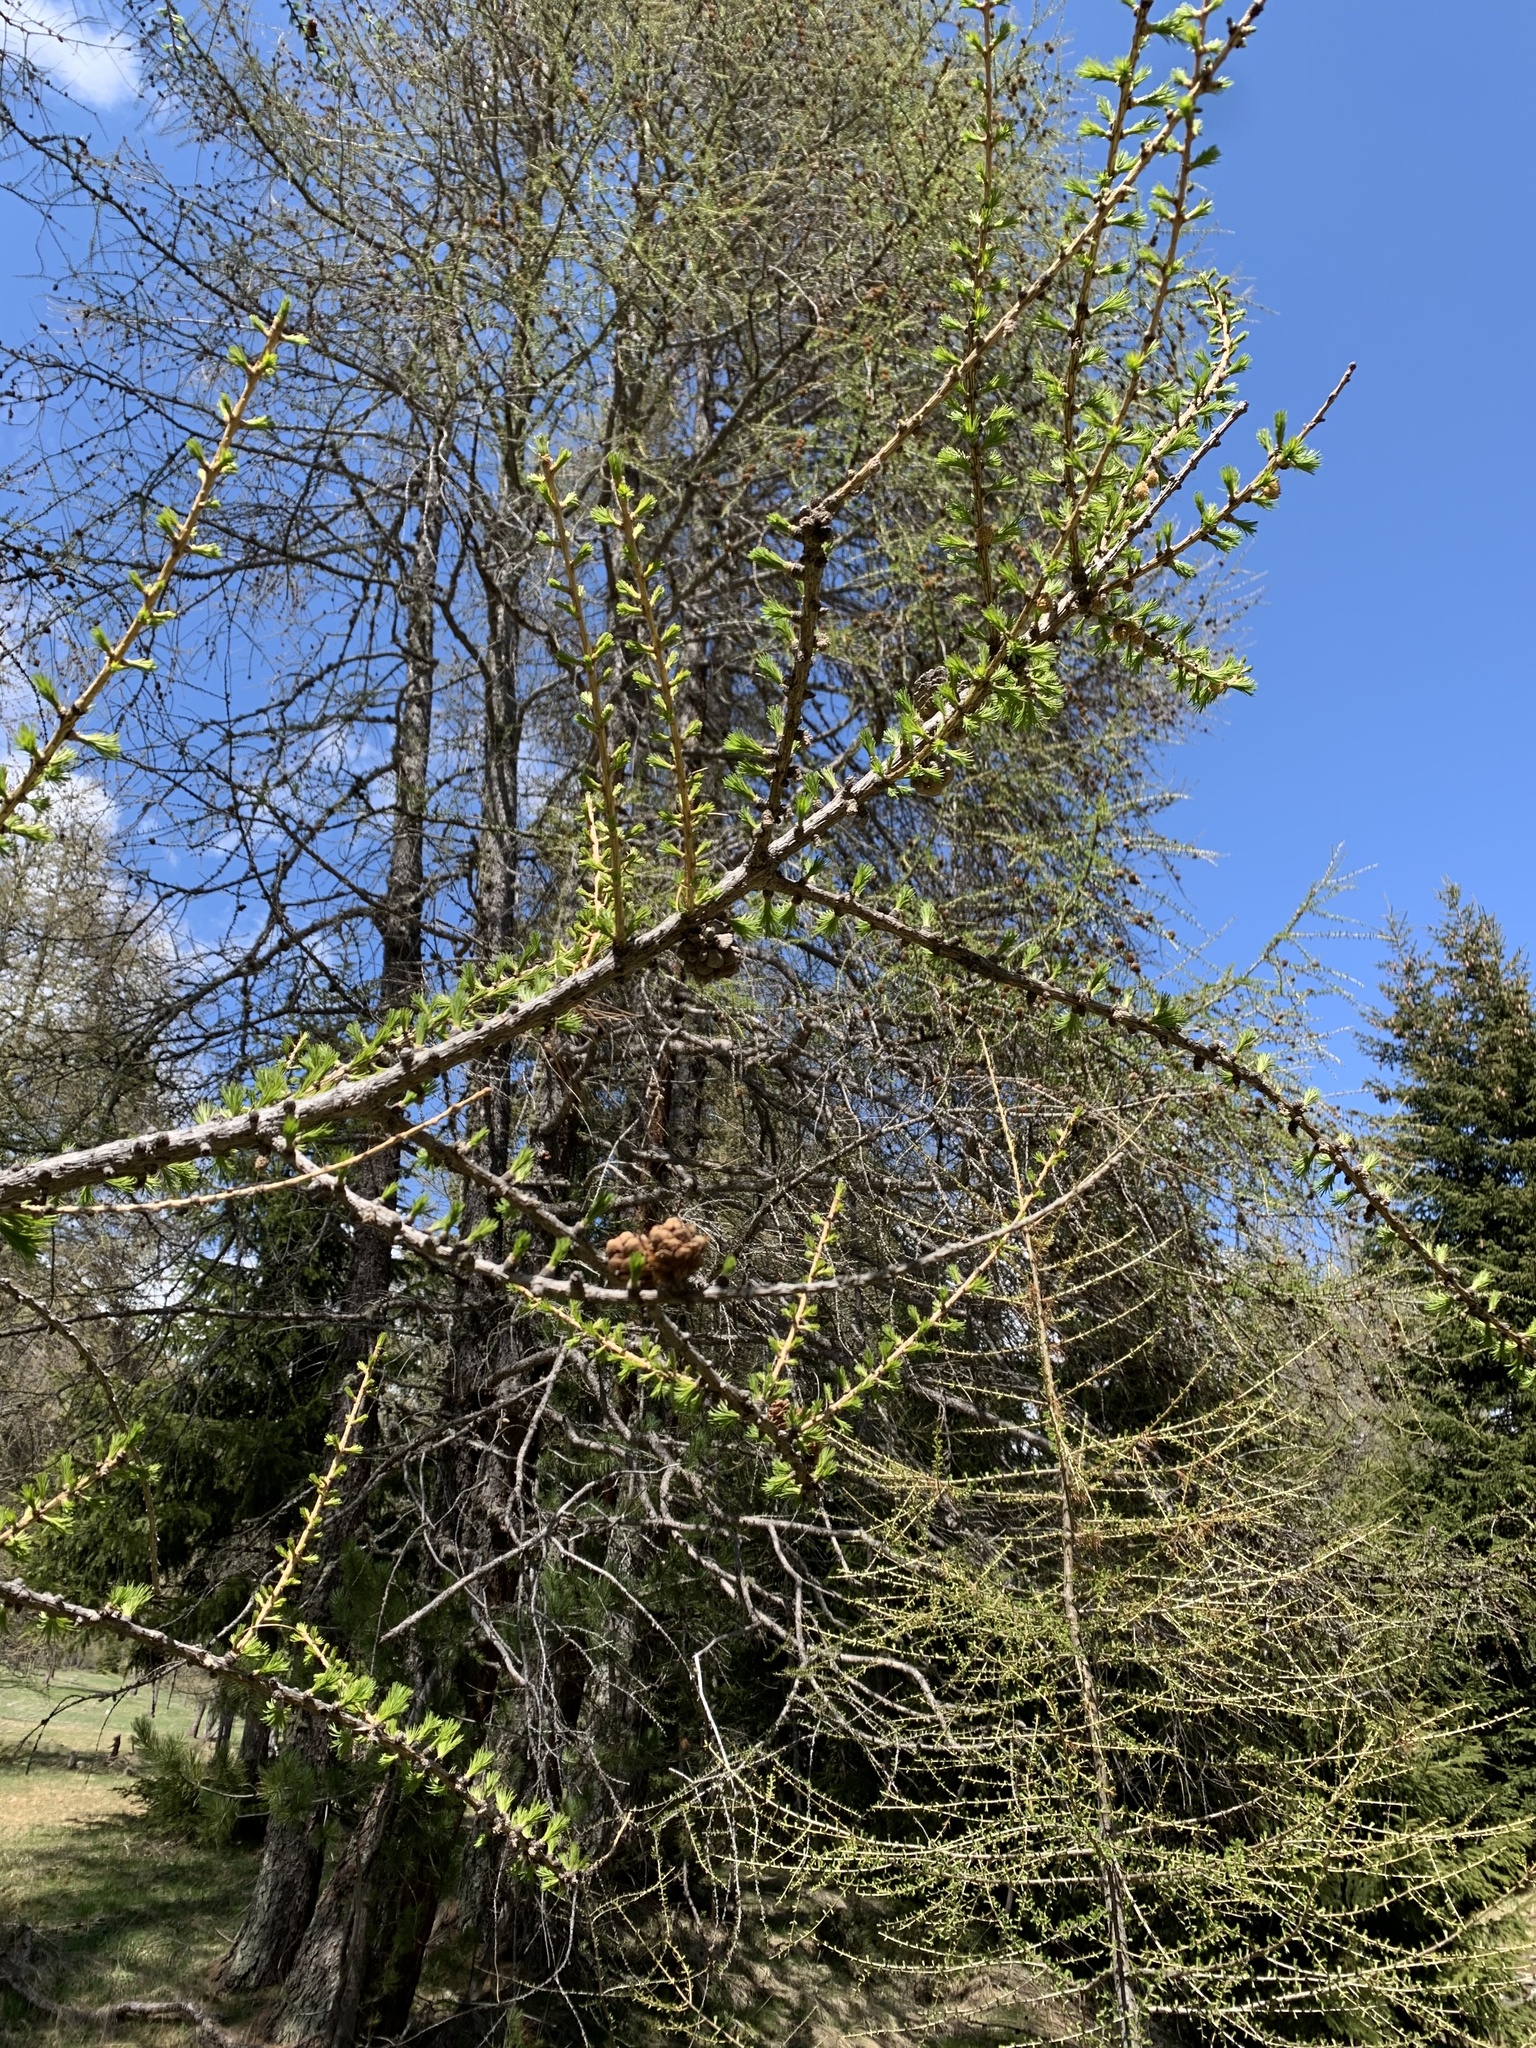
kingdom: Plantae
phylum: Tracheophyta
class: Pinopsida
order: Pinales
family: Pinaceae
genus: Larix
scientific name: Larix decidua
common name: European larch
